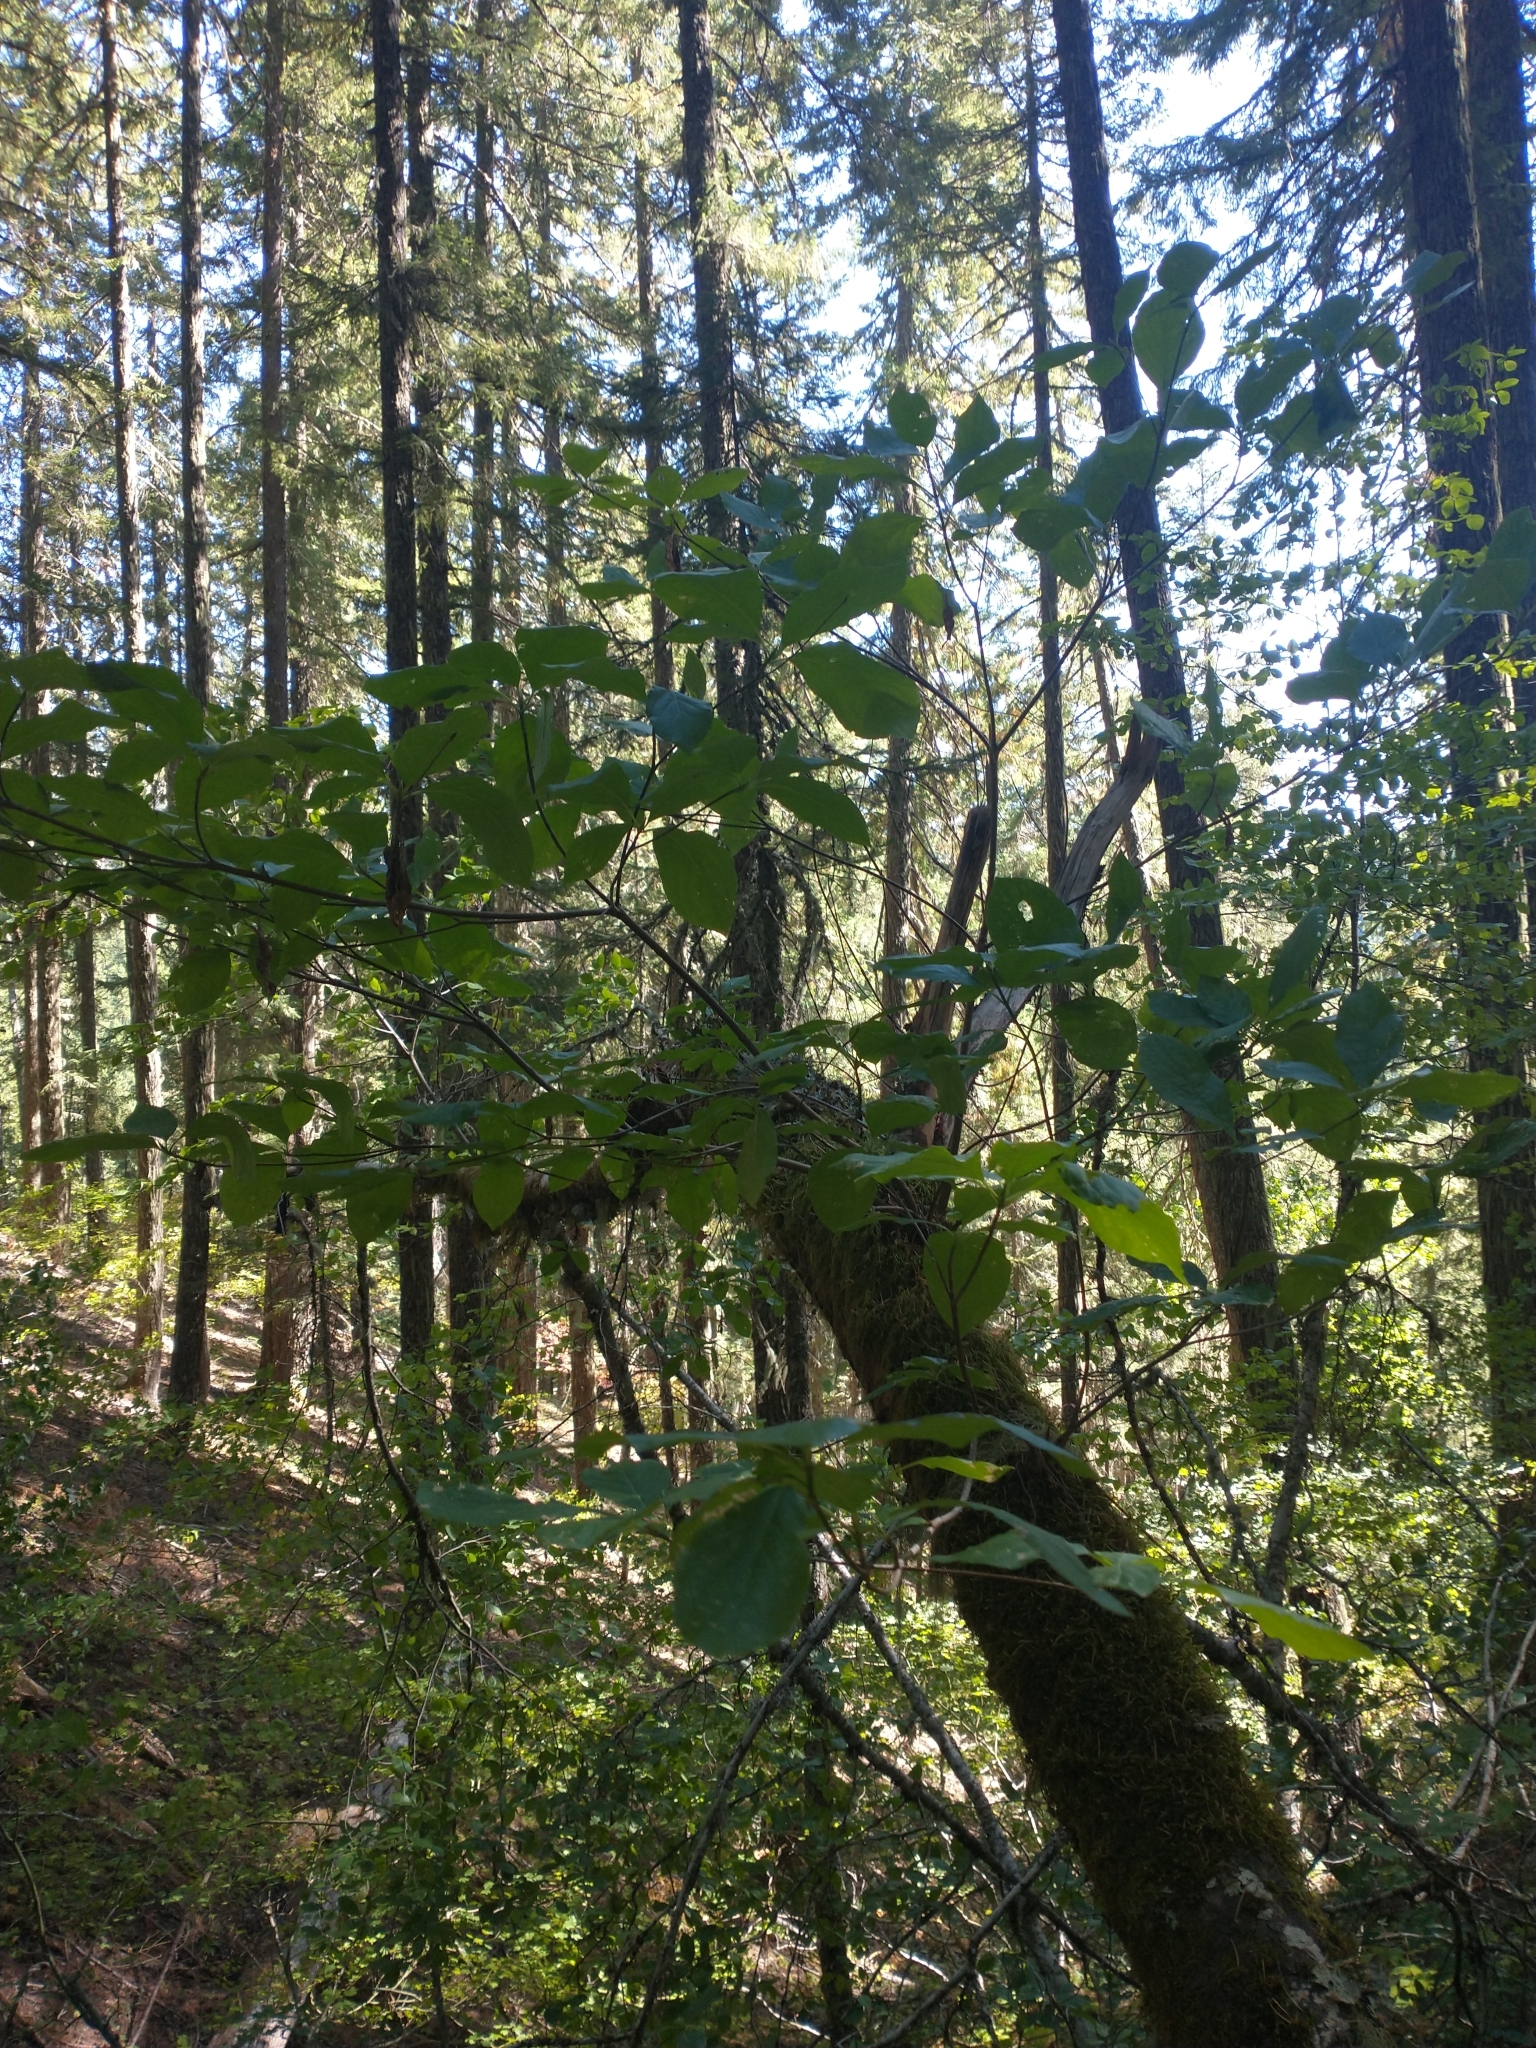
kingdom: Plantae
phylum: Tracheophyta
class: Magnoliopsida
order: Cornales
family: Cornaceae
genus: Cornus
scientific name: Cornus nuttallii
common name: Pacific dogwood
